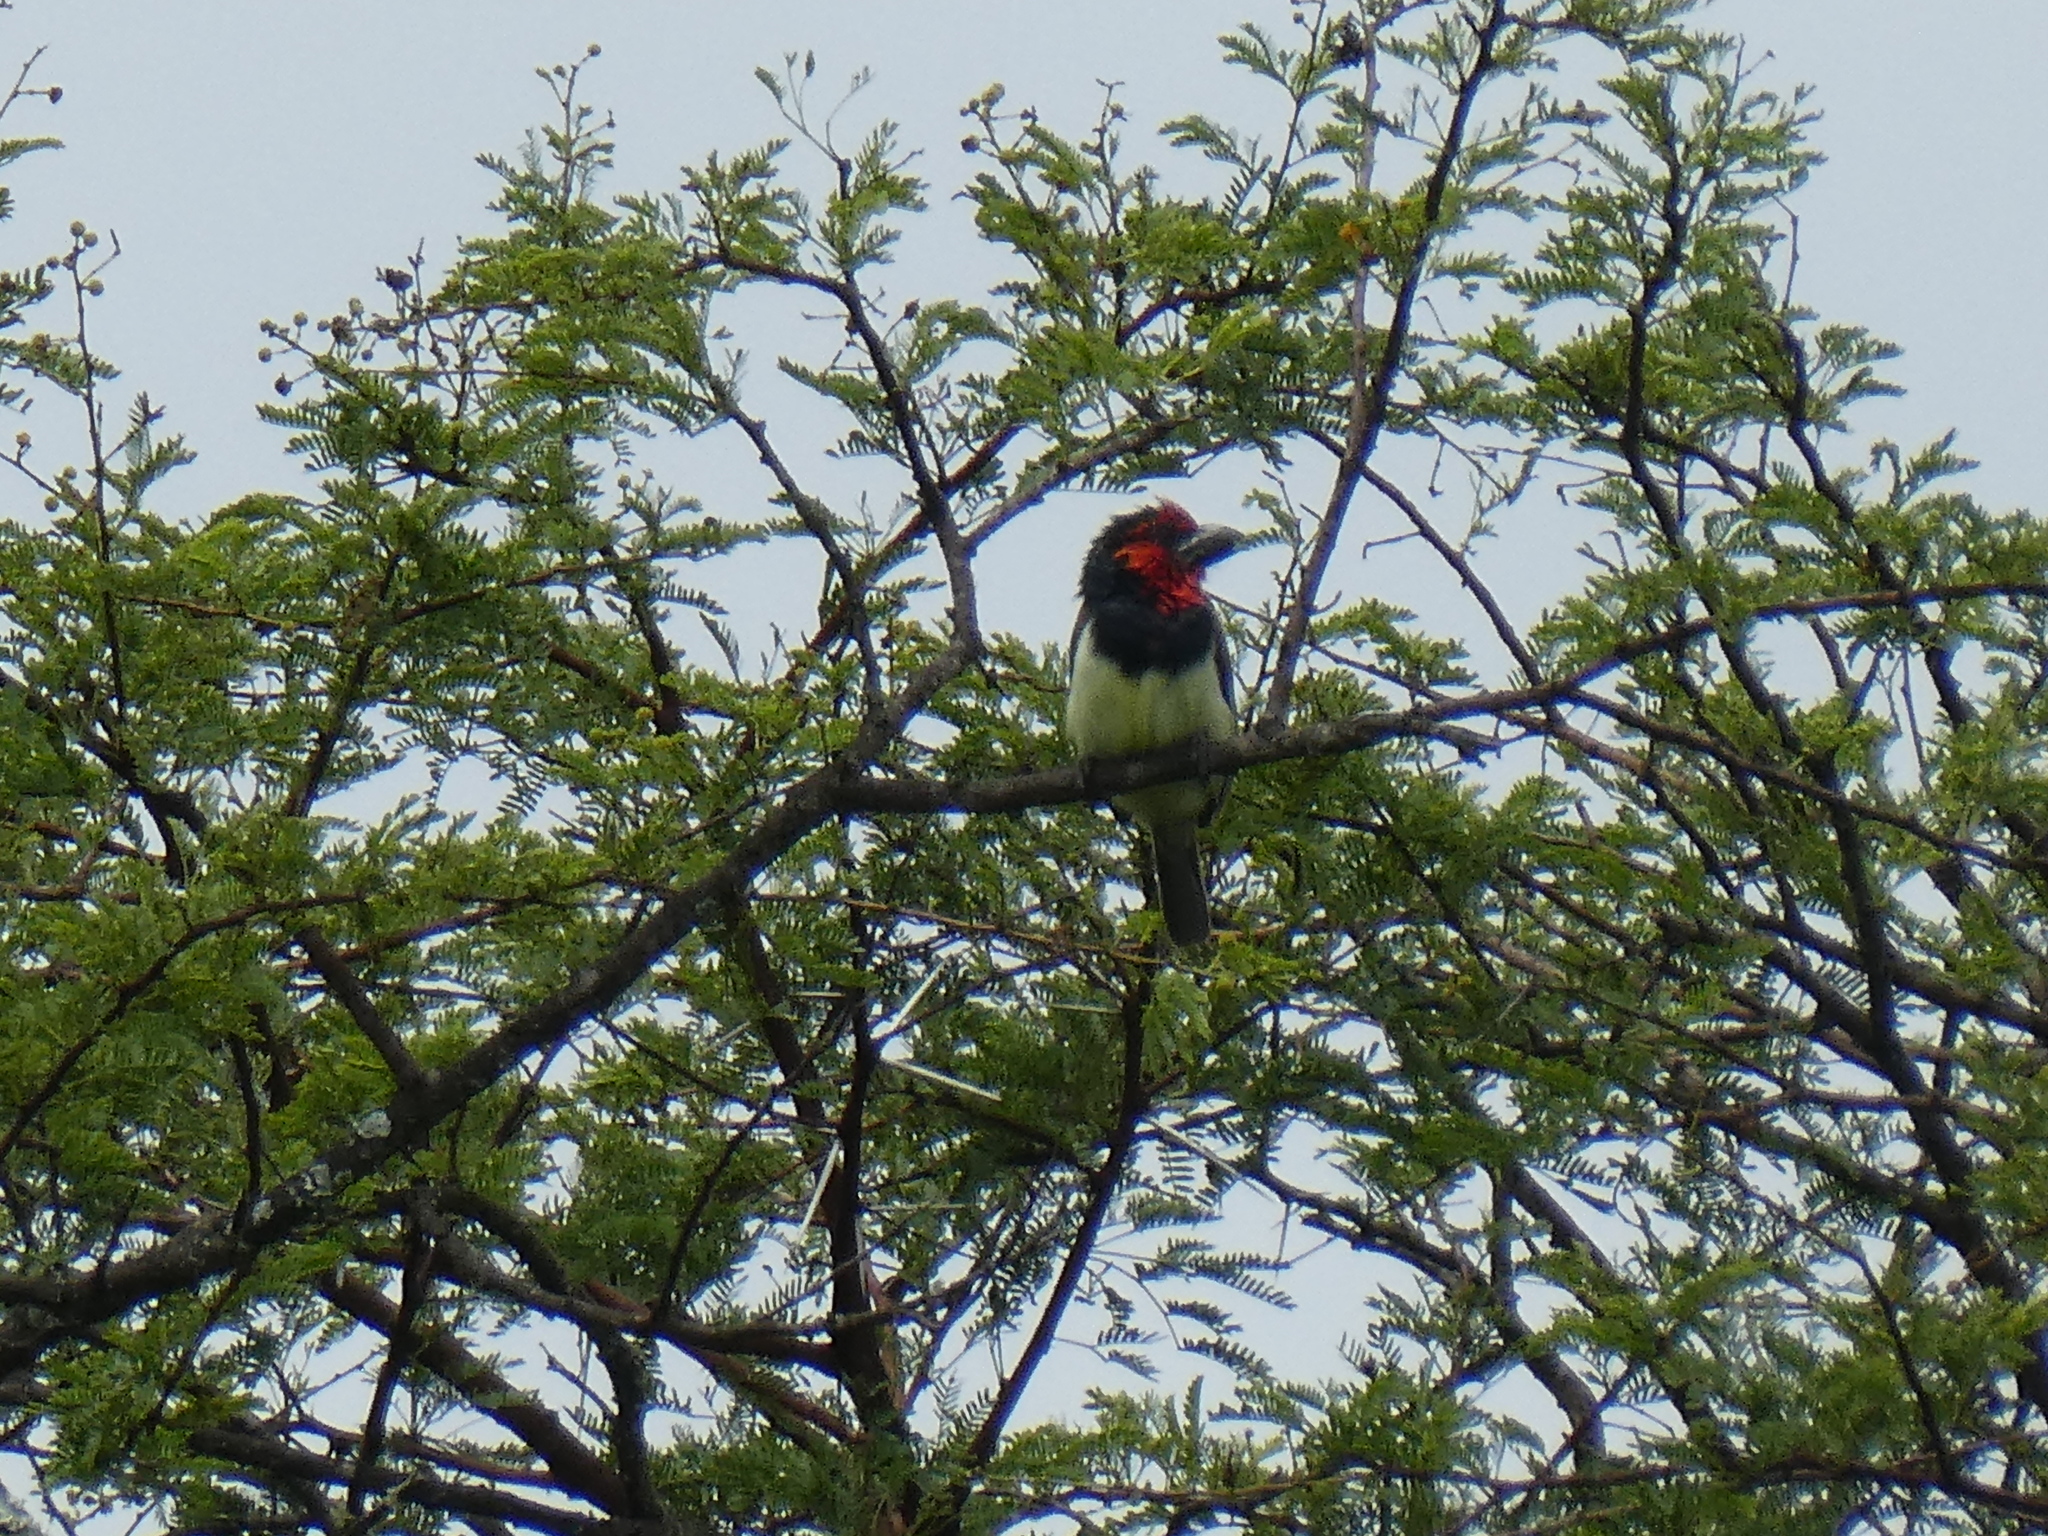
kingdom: Animalia
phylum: Chordata
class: Aves
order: Piciformes
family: Lybiidae
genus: Lybius
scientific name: Lybius torquatus
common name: Black-collared barbet
